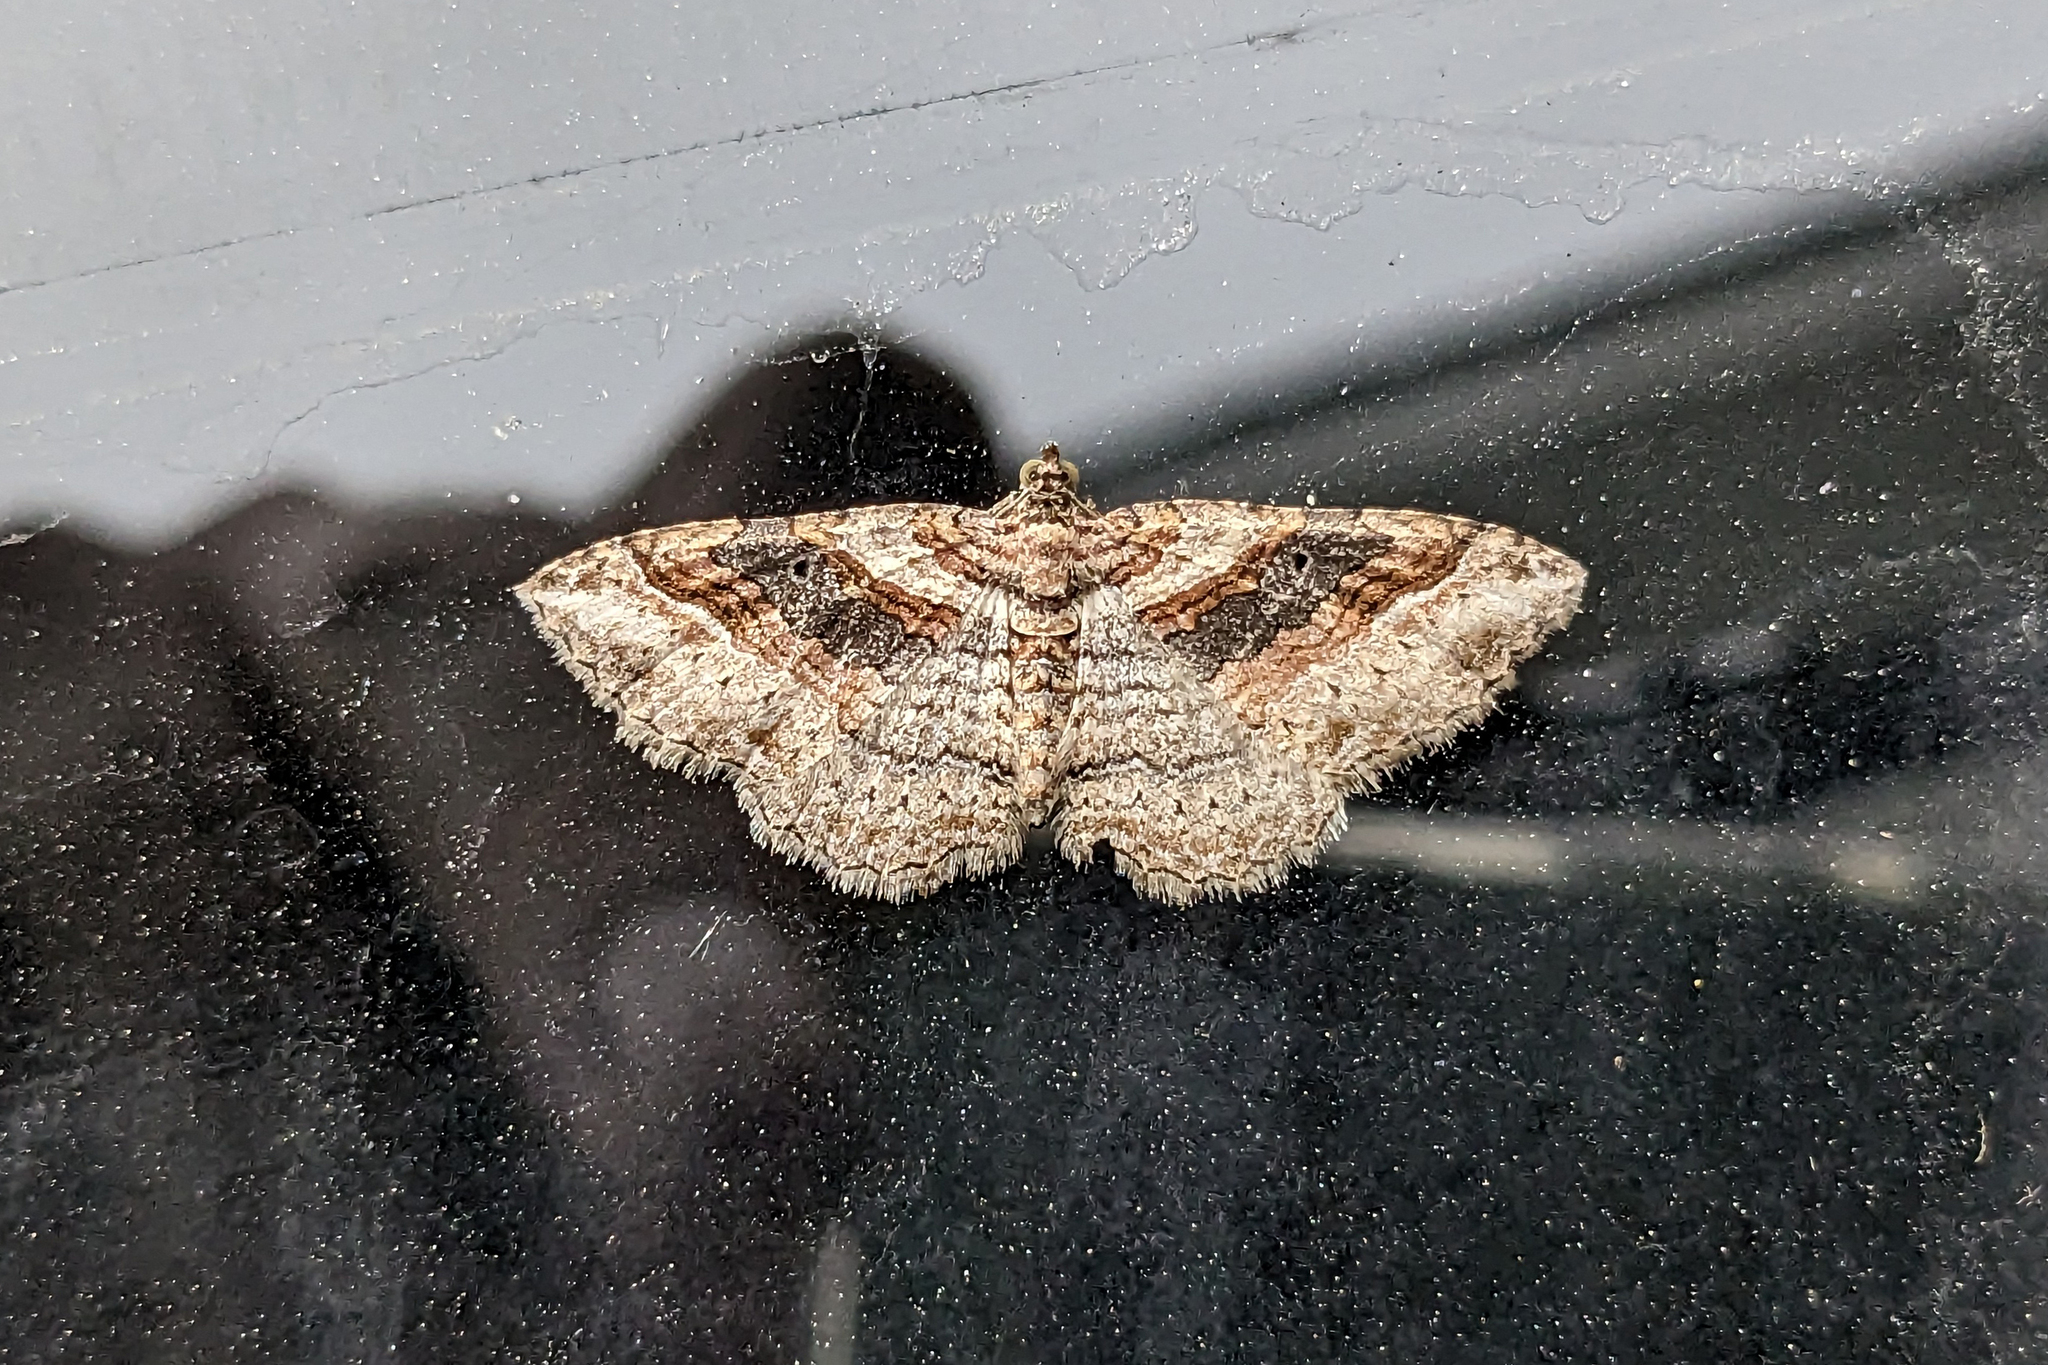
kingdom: Animalia
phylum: Arthropoda
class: Insecta
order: Lepidoptera
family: Geometridae
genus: Costaconvexa
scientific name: Costaconvexa centrostrigaria
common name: Bent-line carpet
